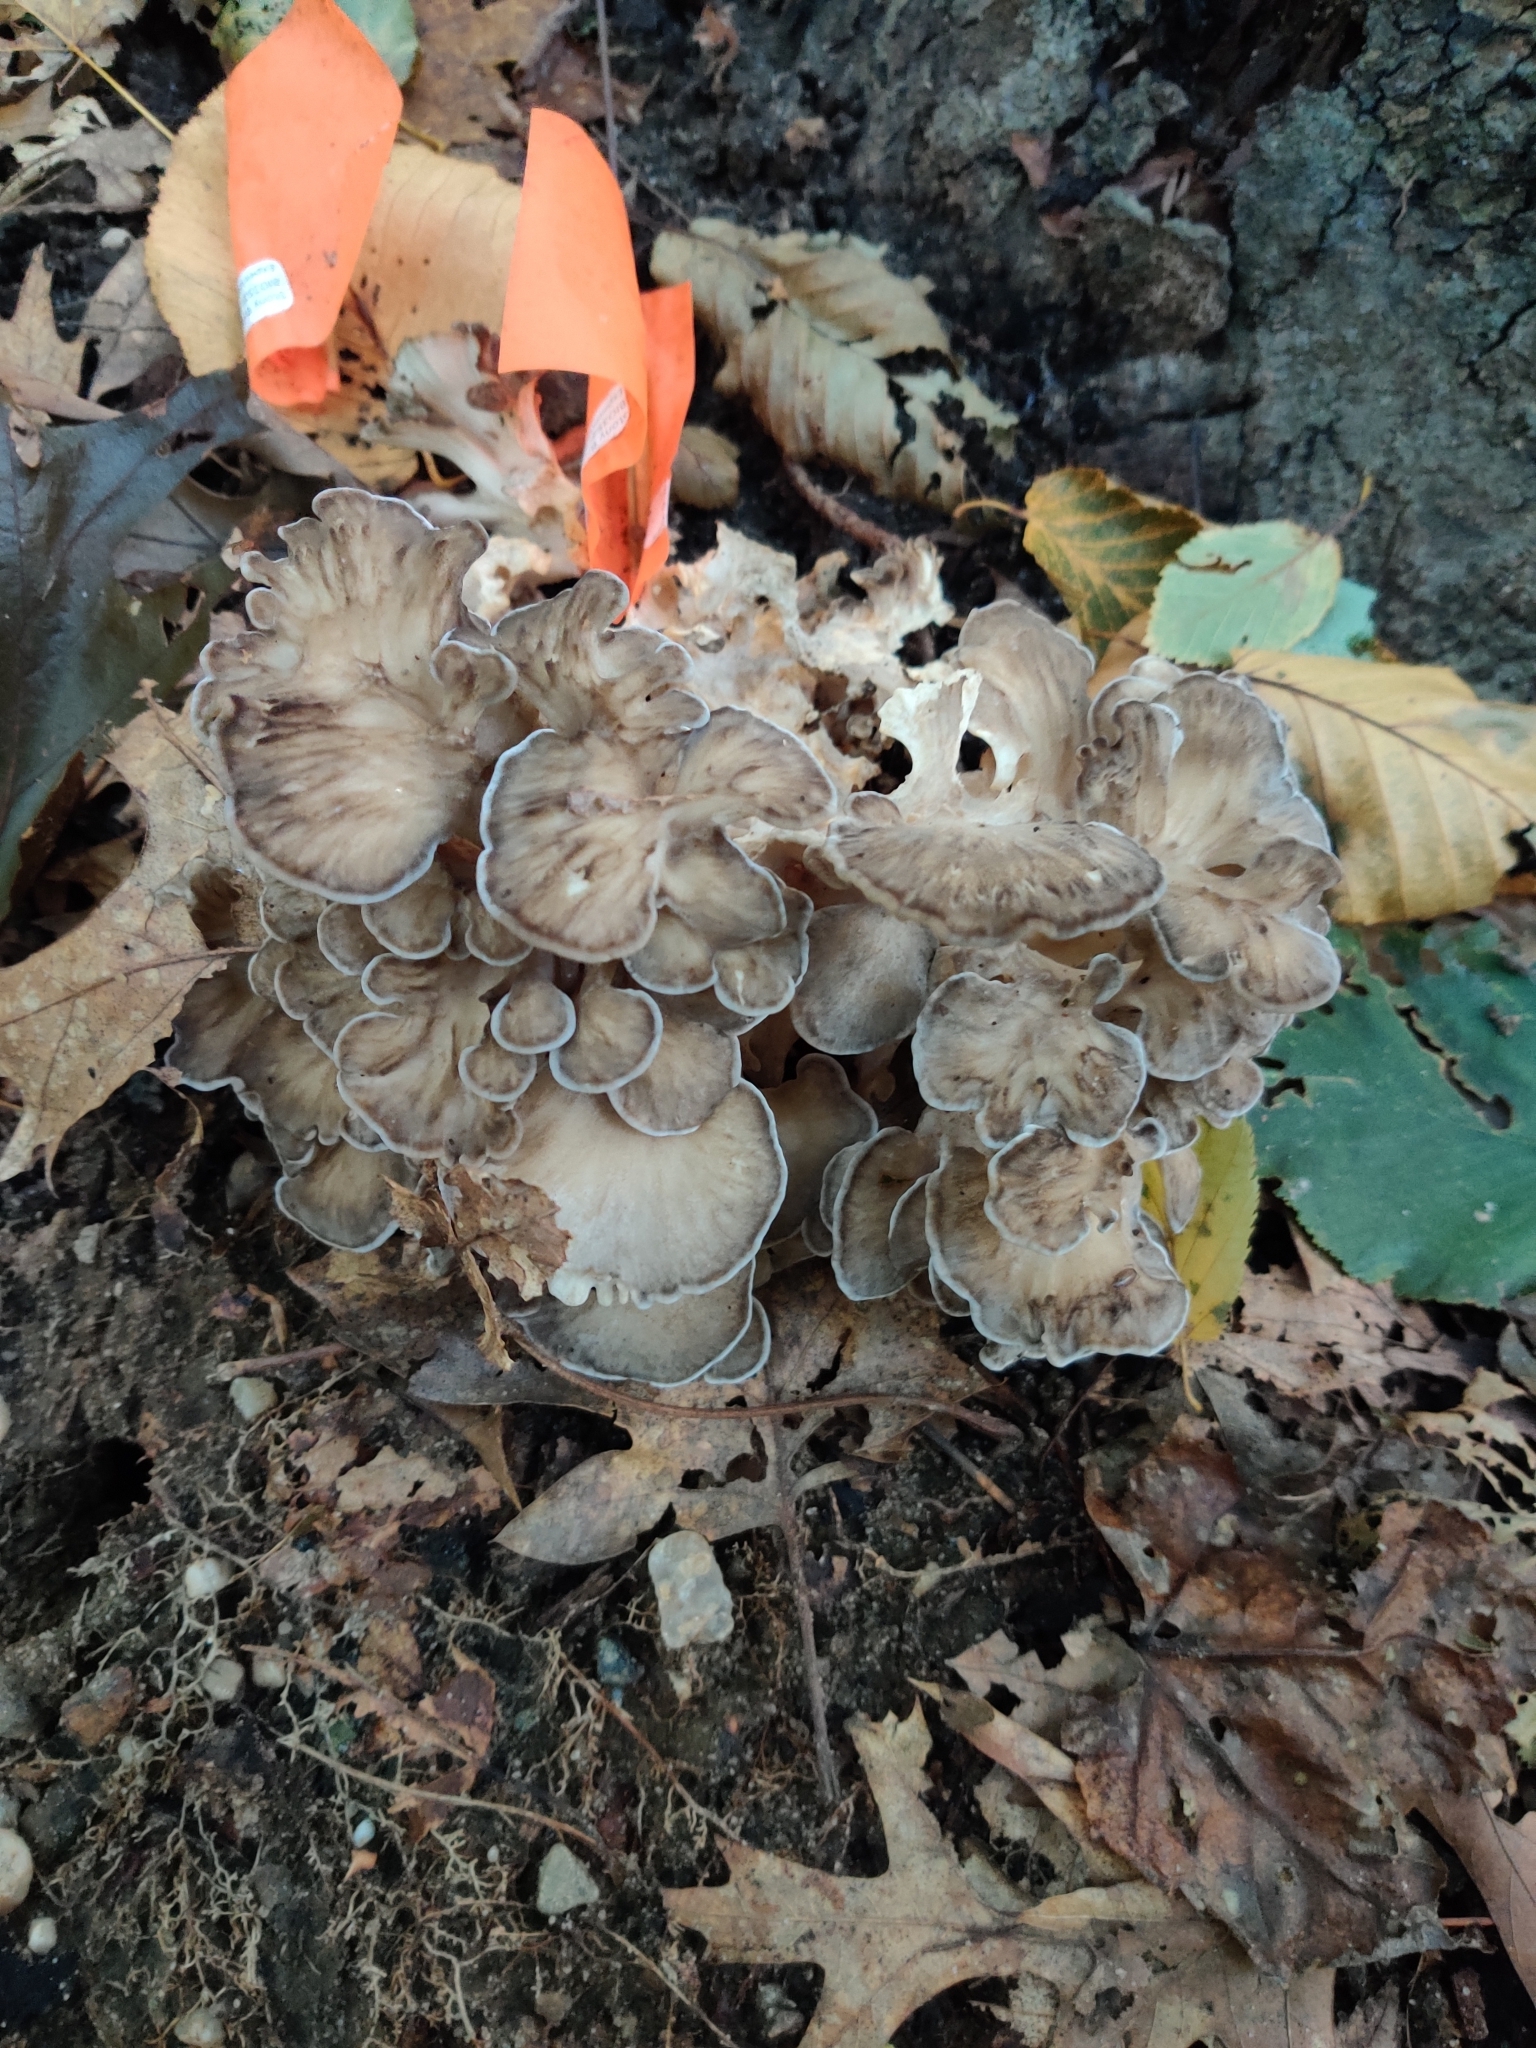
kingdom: Fungi
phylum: Basidiomycota
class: Agaricomycetes
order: Polyporales
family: Grifolaceae
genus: Grifola
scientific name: Grifola frondosa
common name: Hen of the woods
